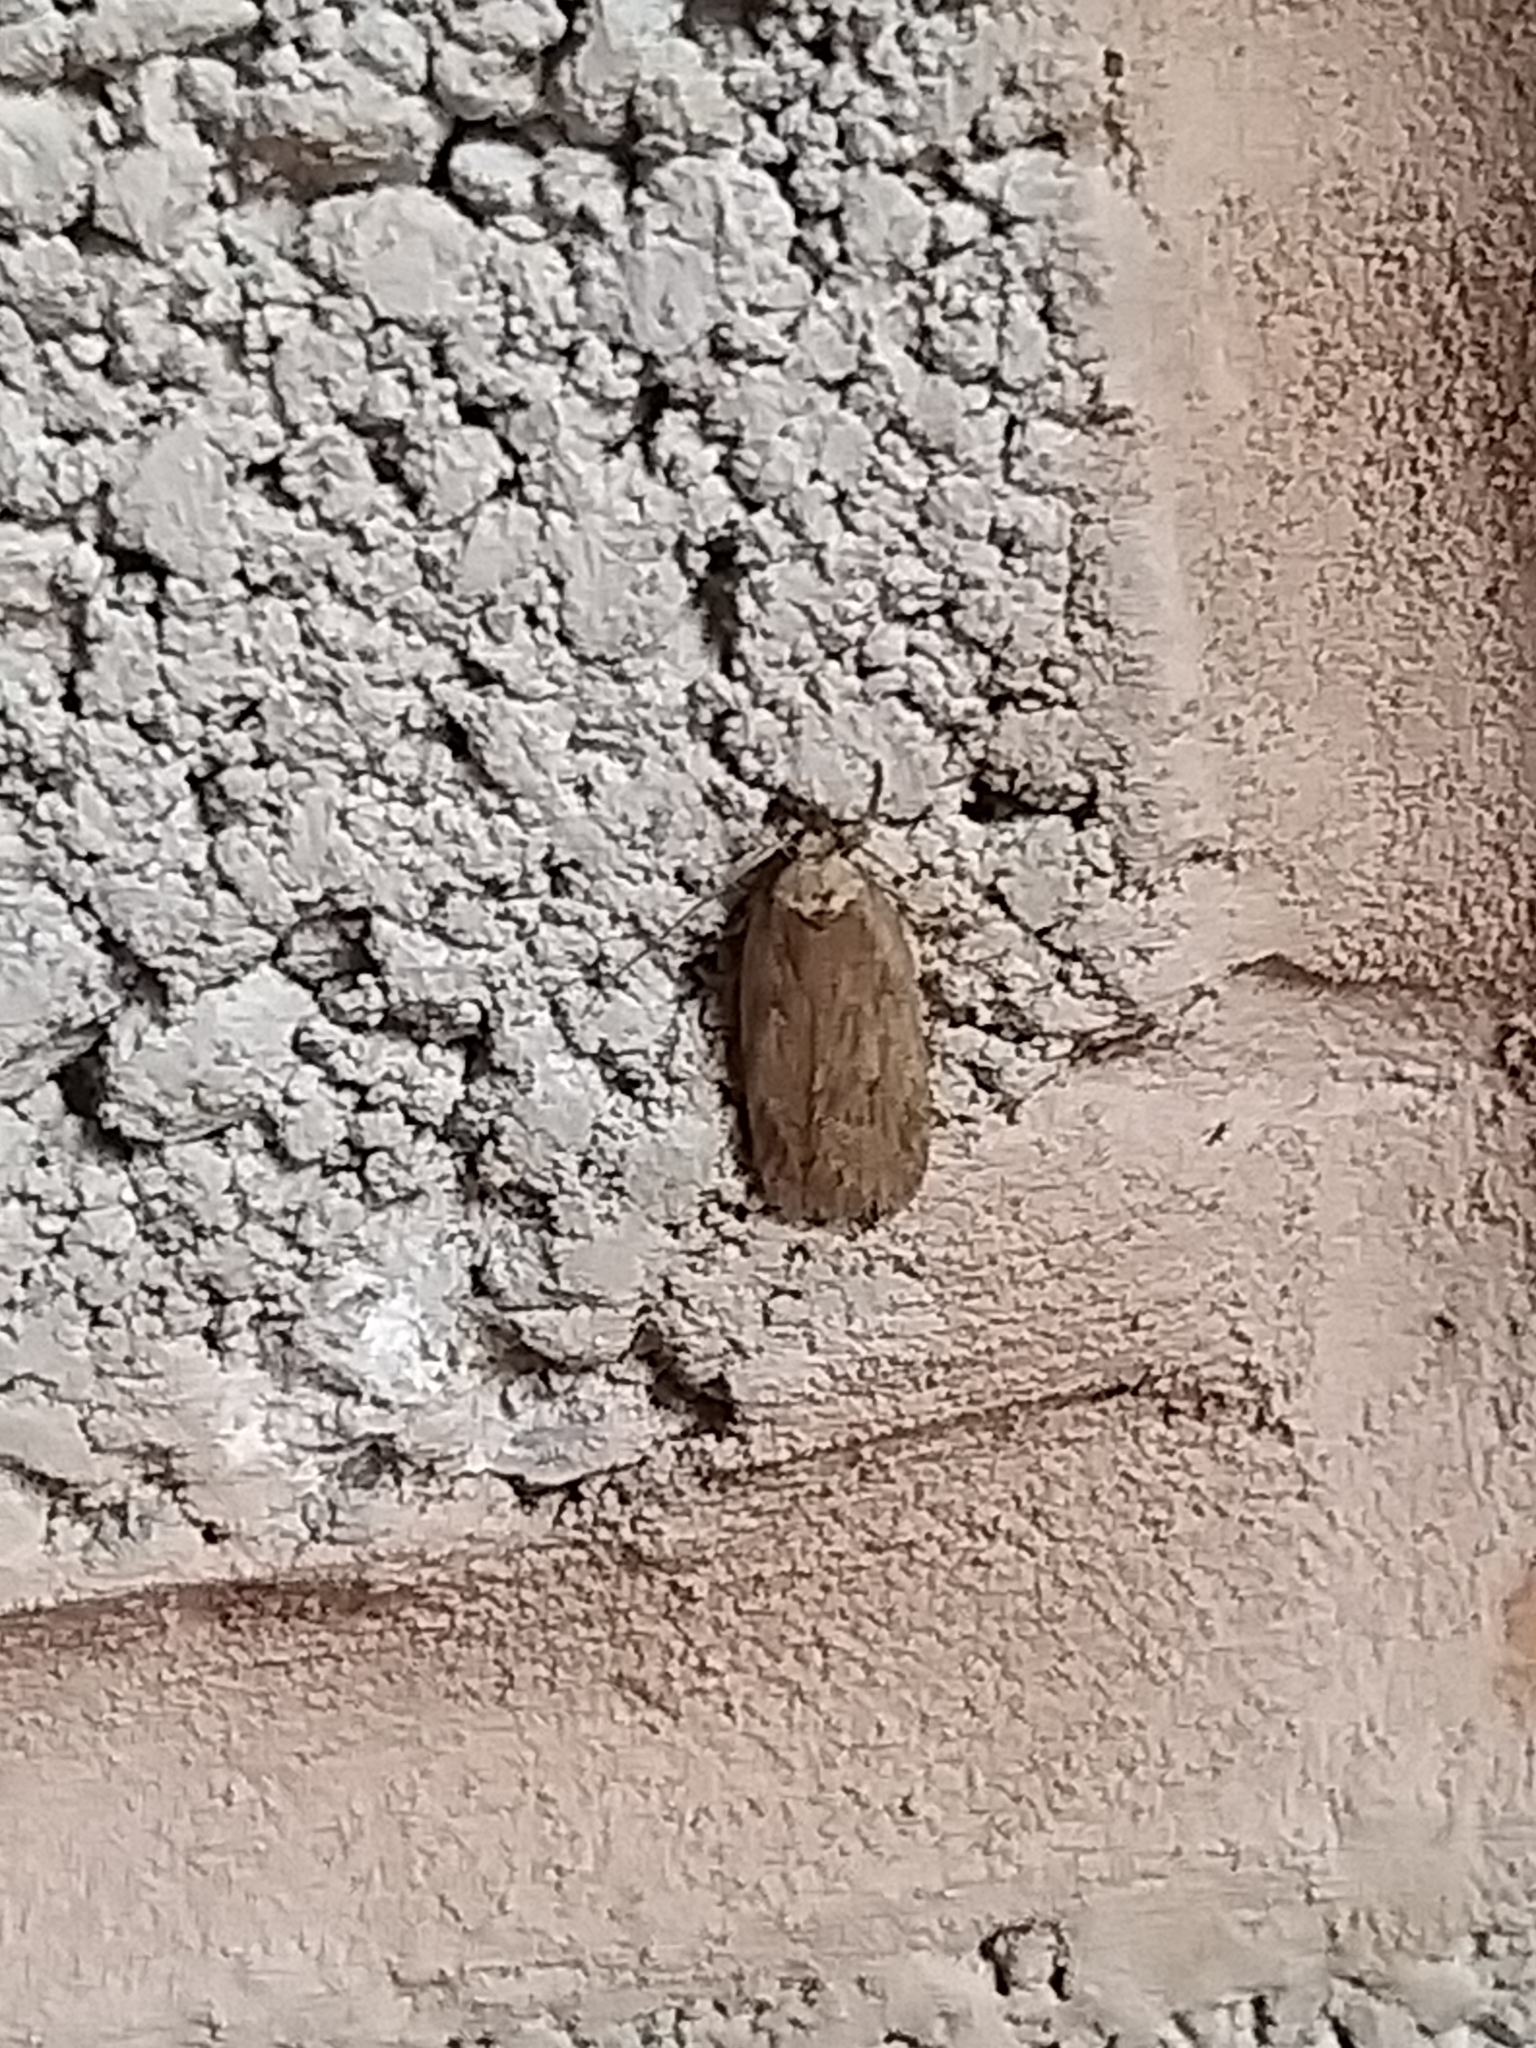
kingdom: Animalia
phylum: Arthropoda
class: Insecta
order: Lepidoptera
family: Depressariidae
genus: Depressaria
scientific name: Depressaria radiella
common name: Parsnip moth
